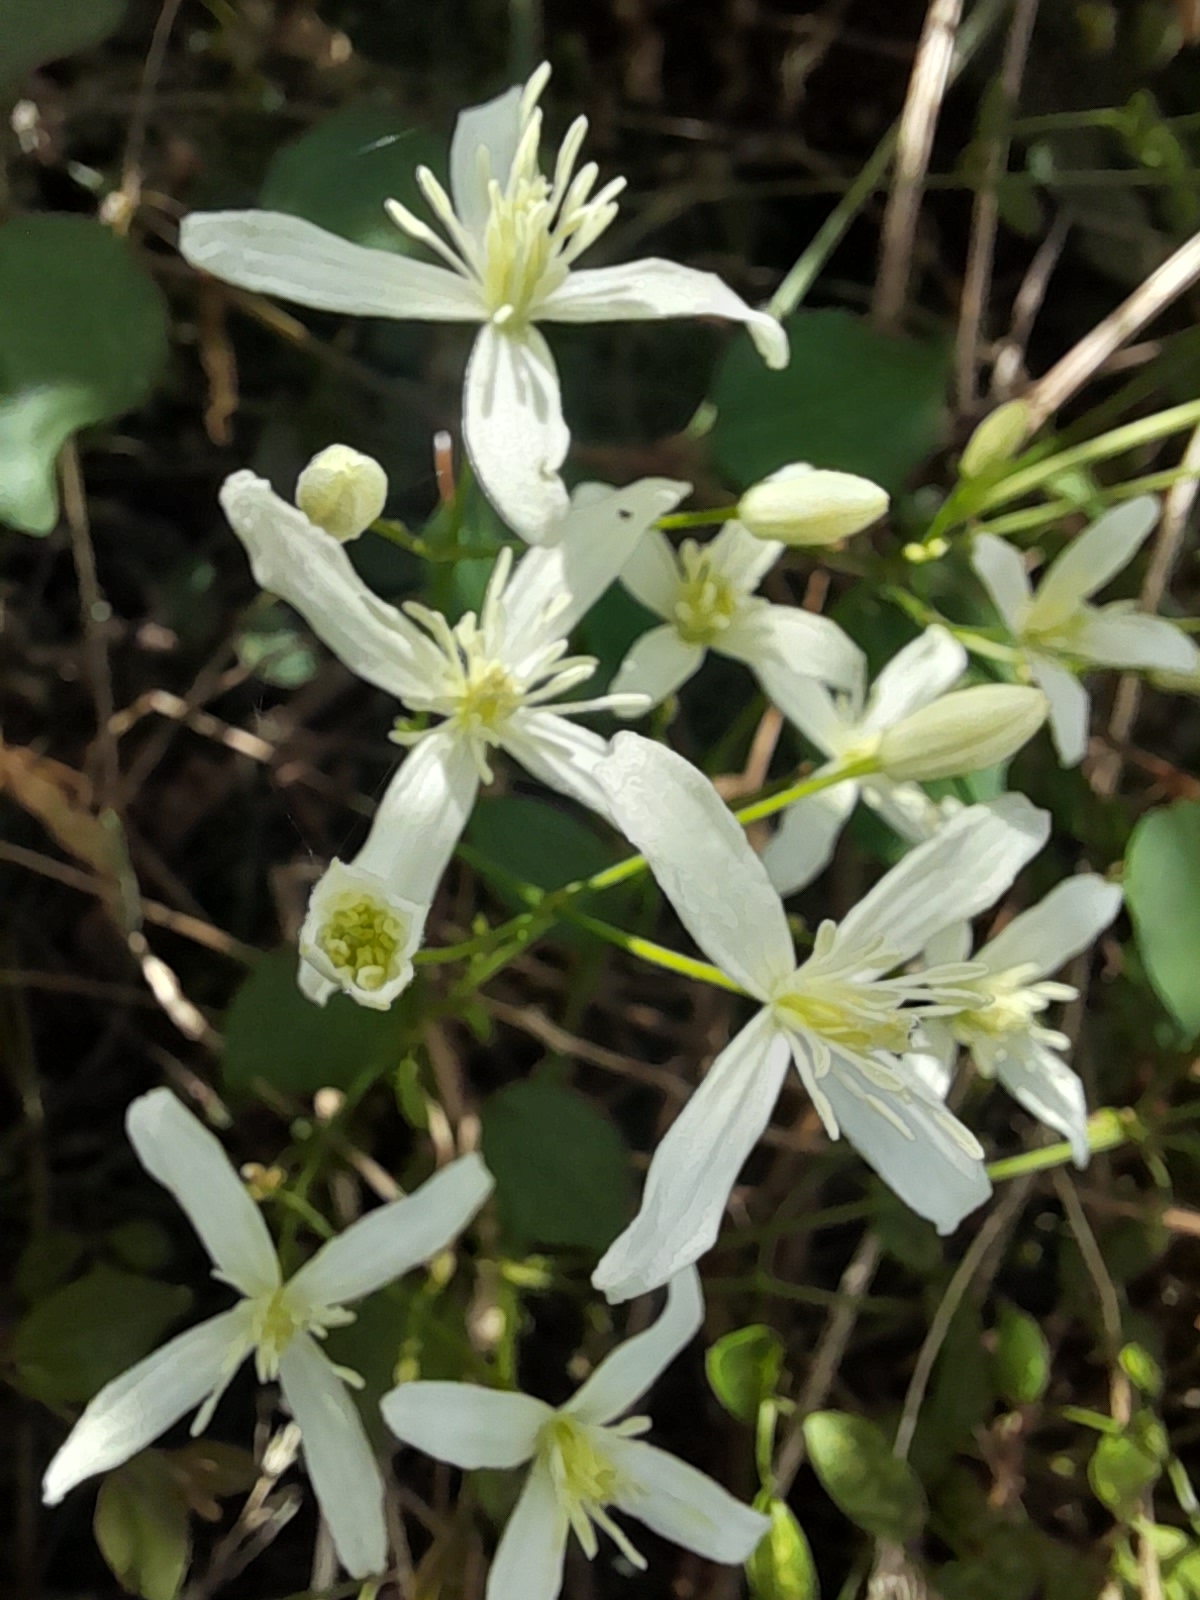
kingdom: Plantae
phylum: Tracheophyta
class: Magnoliopsida
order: Ranunculales
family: Ranunculaceae
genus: Clematis
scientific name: Clematis flammula
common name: Virgin's-bower
